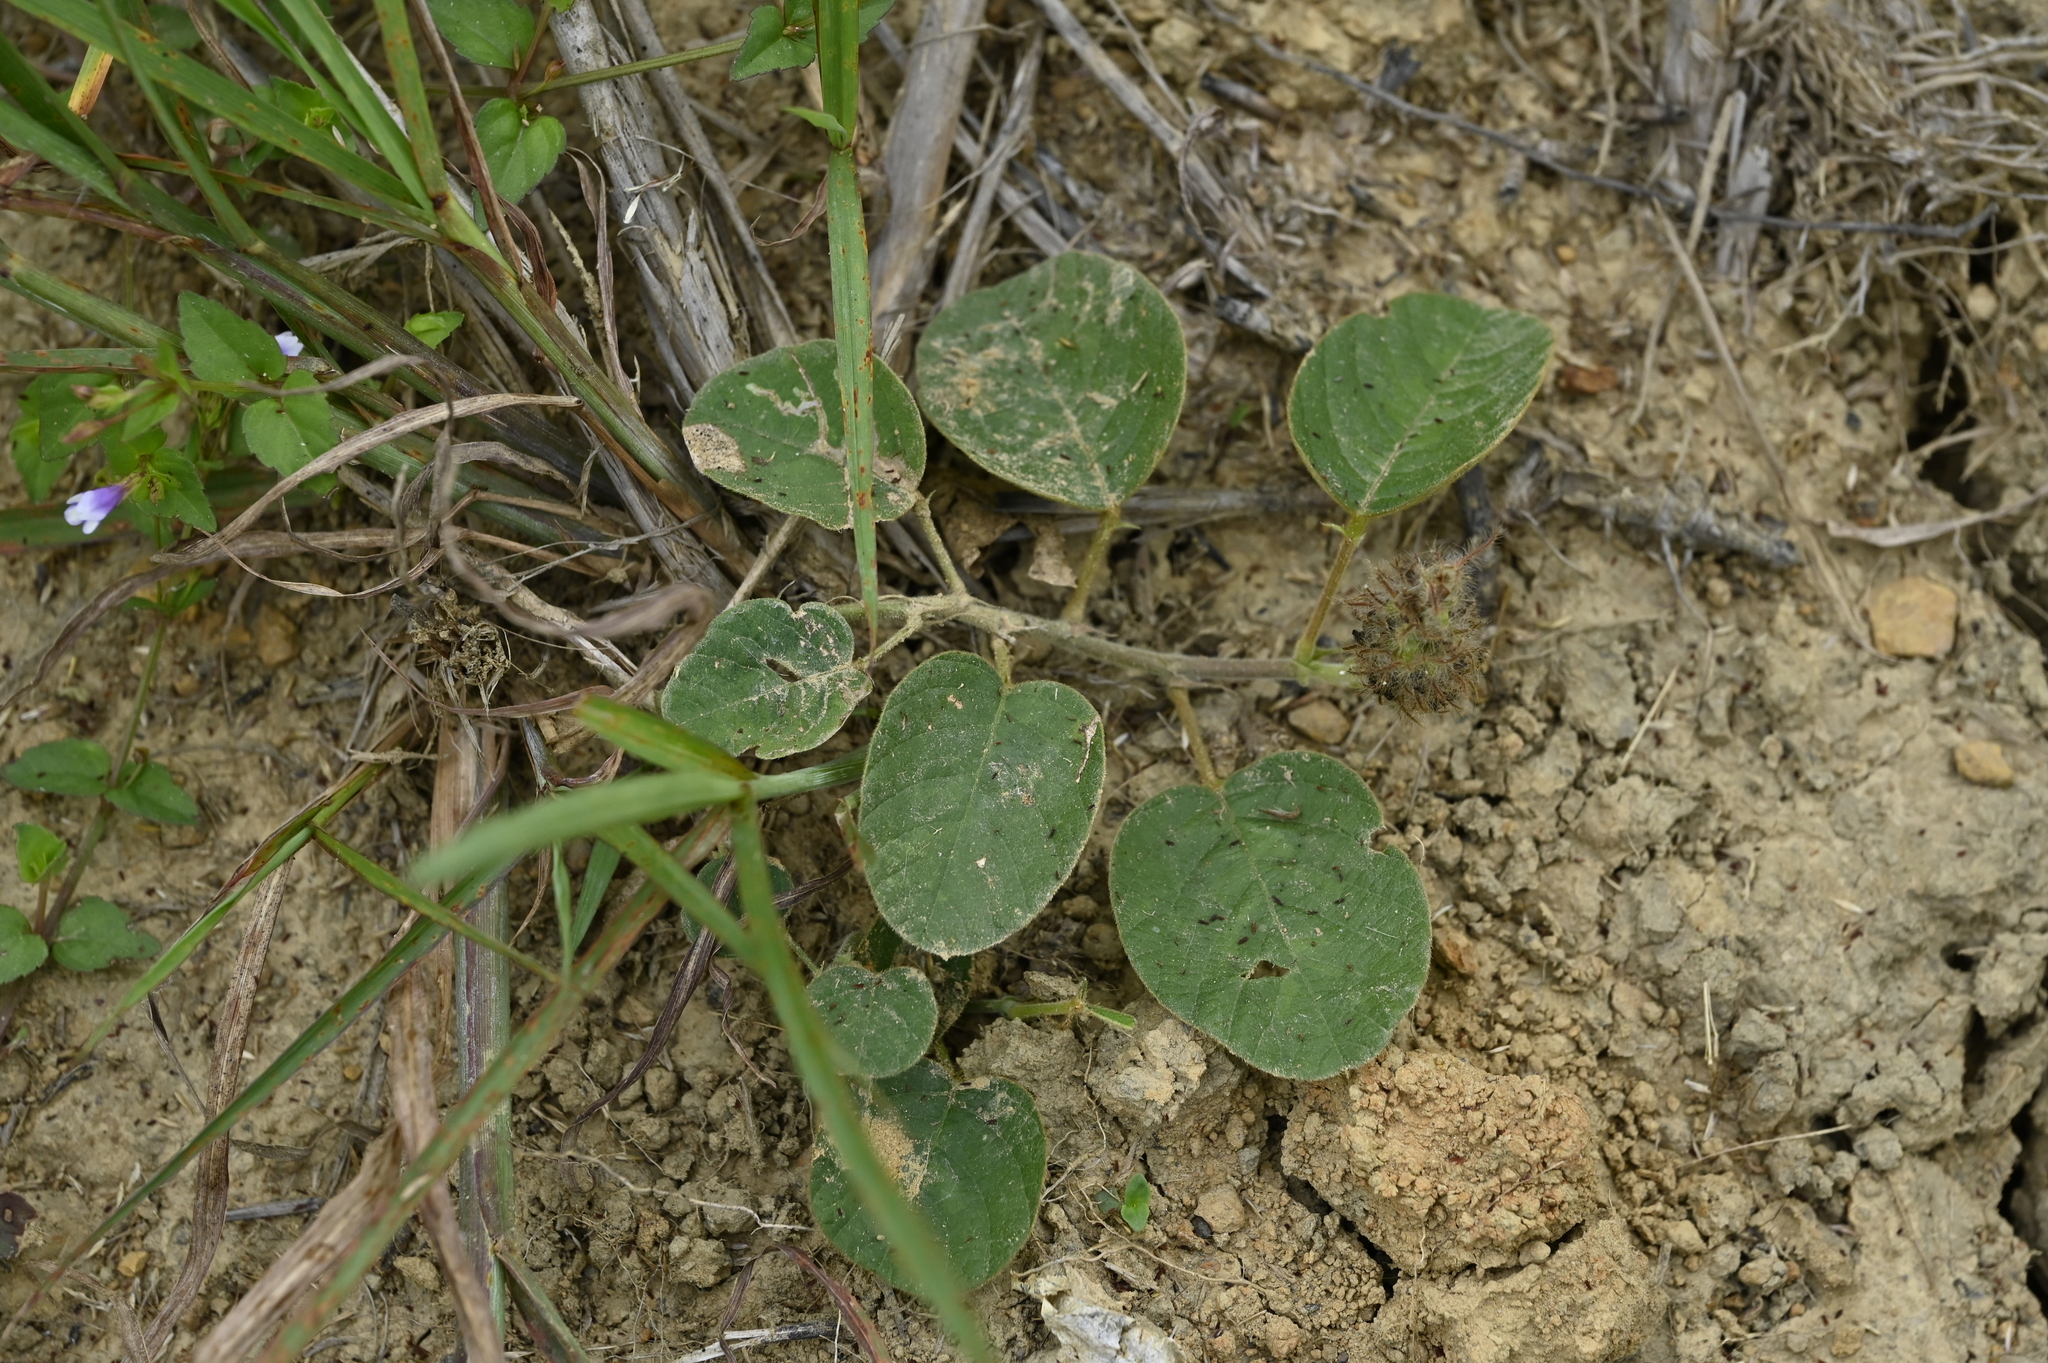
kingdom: Plantae
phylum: Tracheophyta
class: Magnoliopsida
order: Fabales
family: Fabaceae
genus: Uraria
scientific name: Uraria lagopodioides
